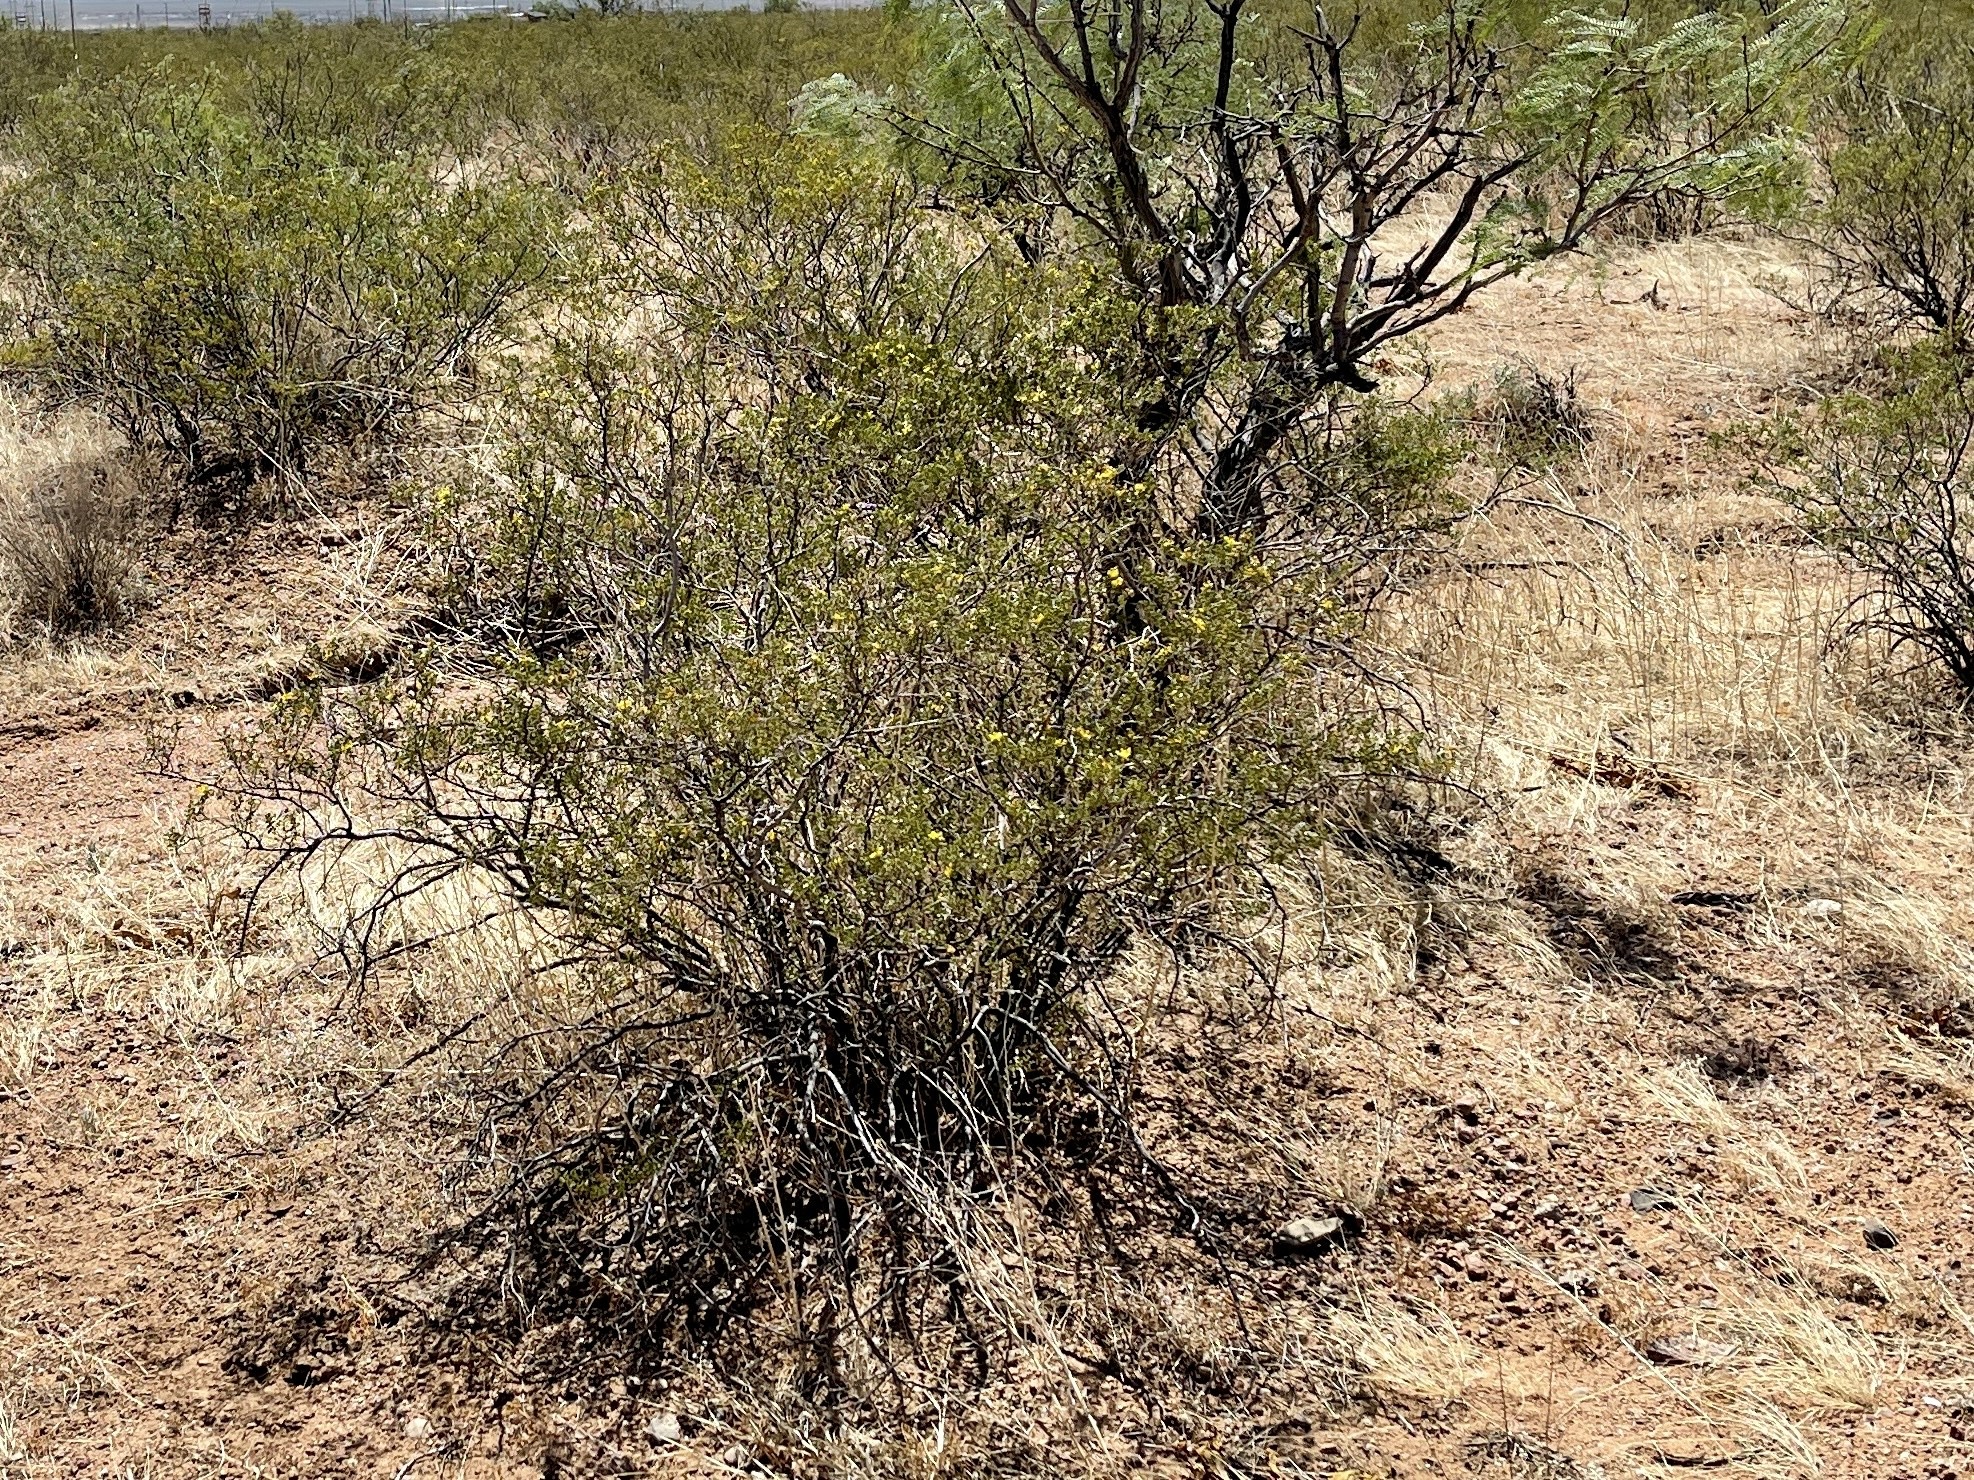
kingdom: Plantae
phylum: Tracheophyta
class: Magnoliopsida
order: Zygophyllales
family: Zygophyllaceae
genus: Larrea
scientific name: Larrea tridentata
